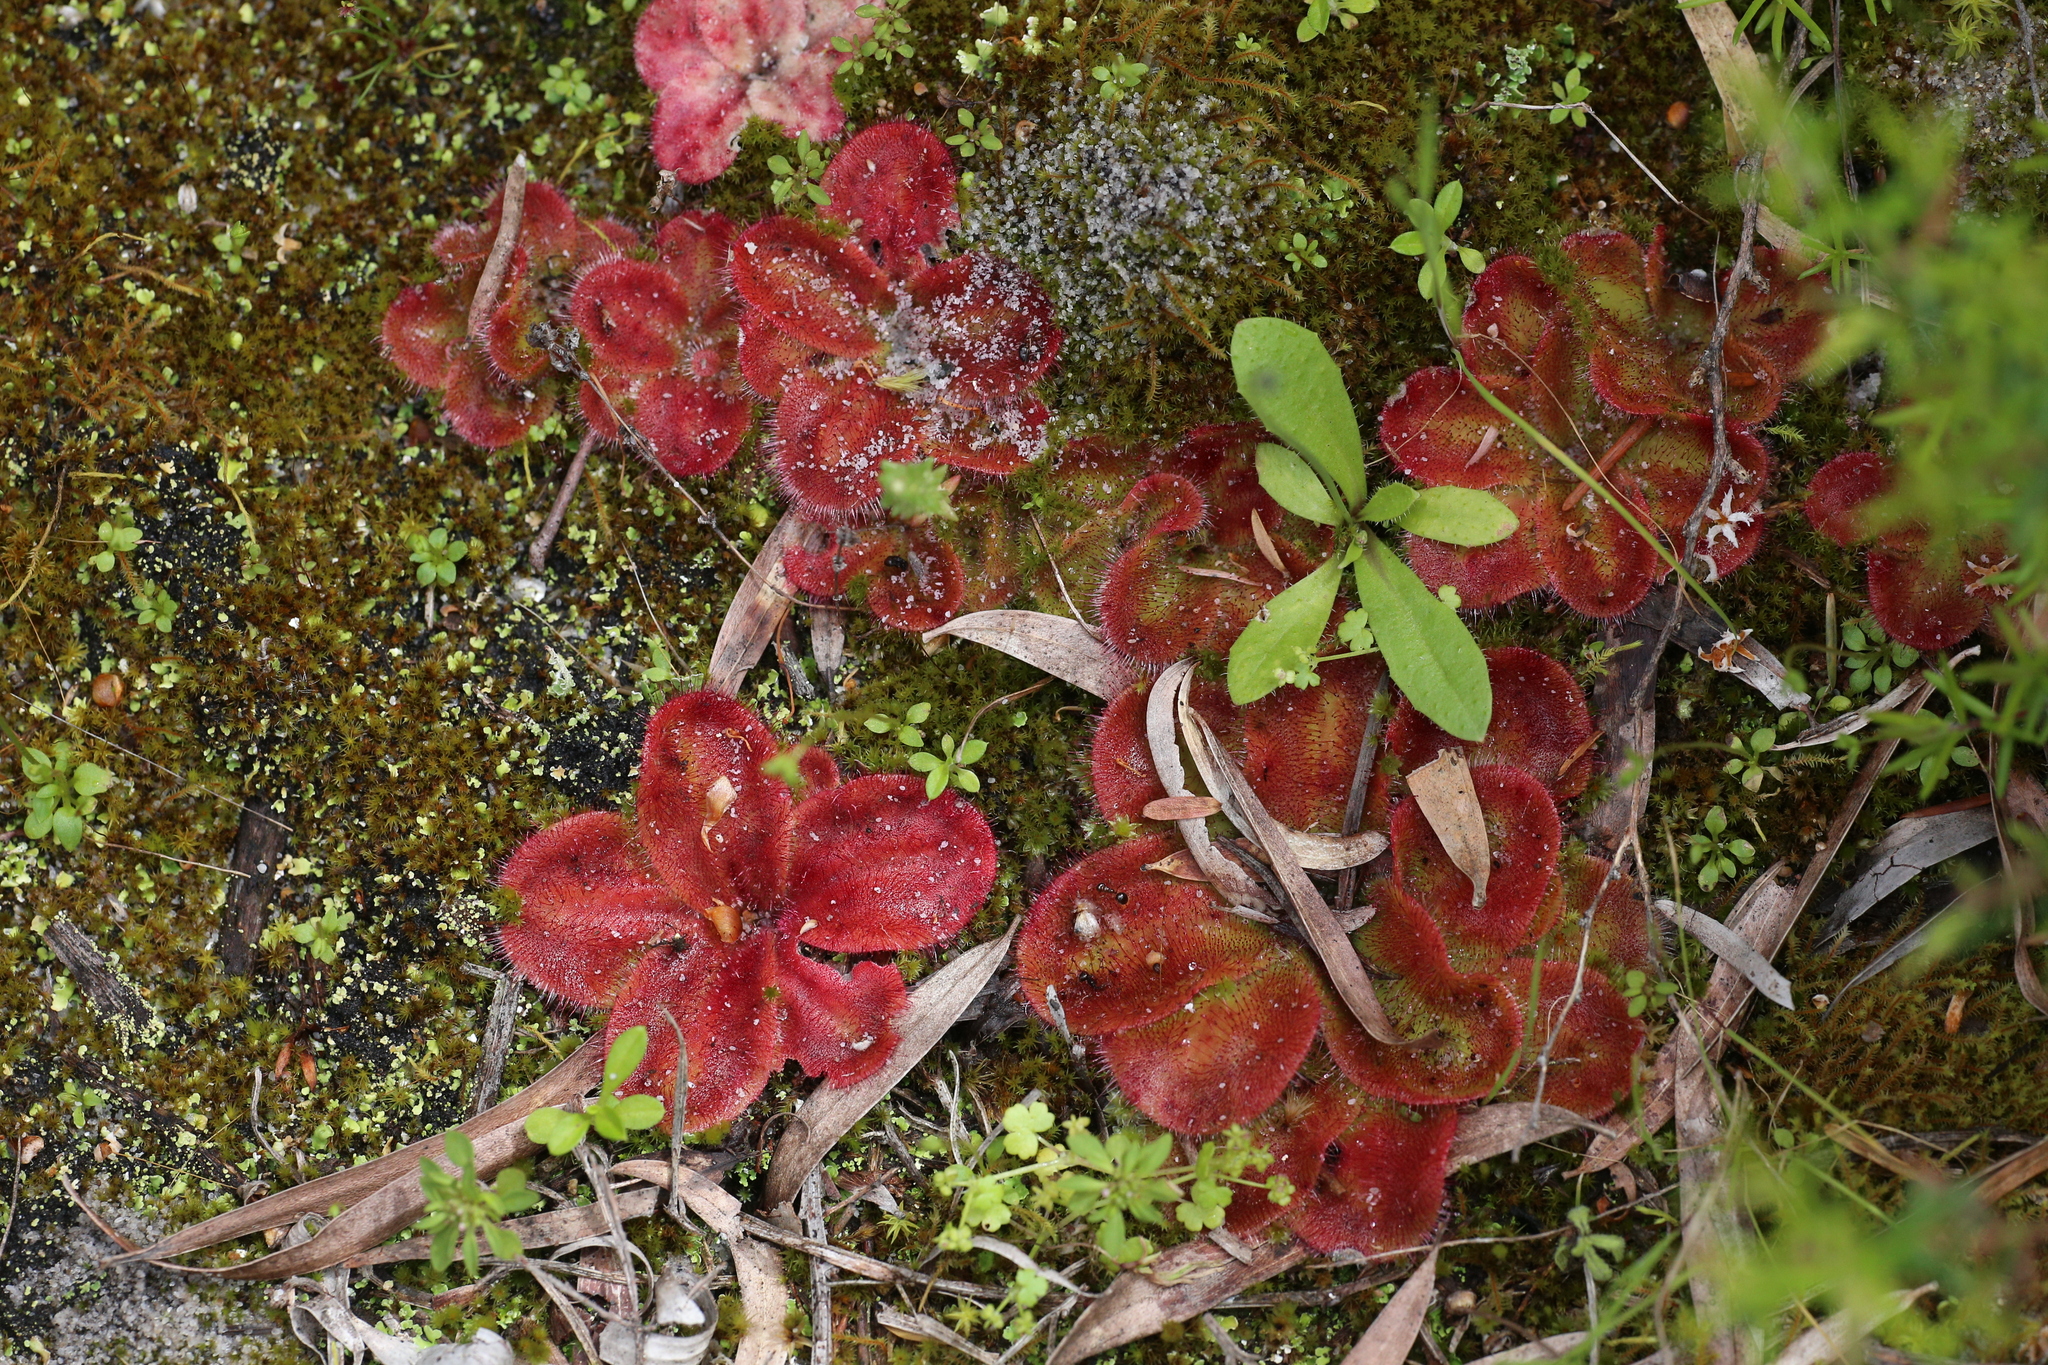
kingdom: Plantae
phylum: Tracheophyta
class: Magnoliopsida
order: Caryophyllales
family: Droseraceae
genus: Drosera
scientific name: Drosera erythrorhiza
